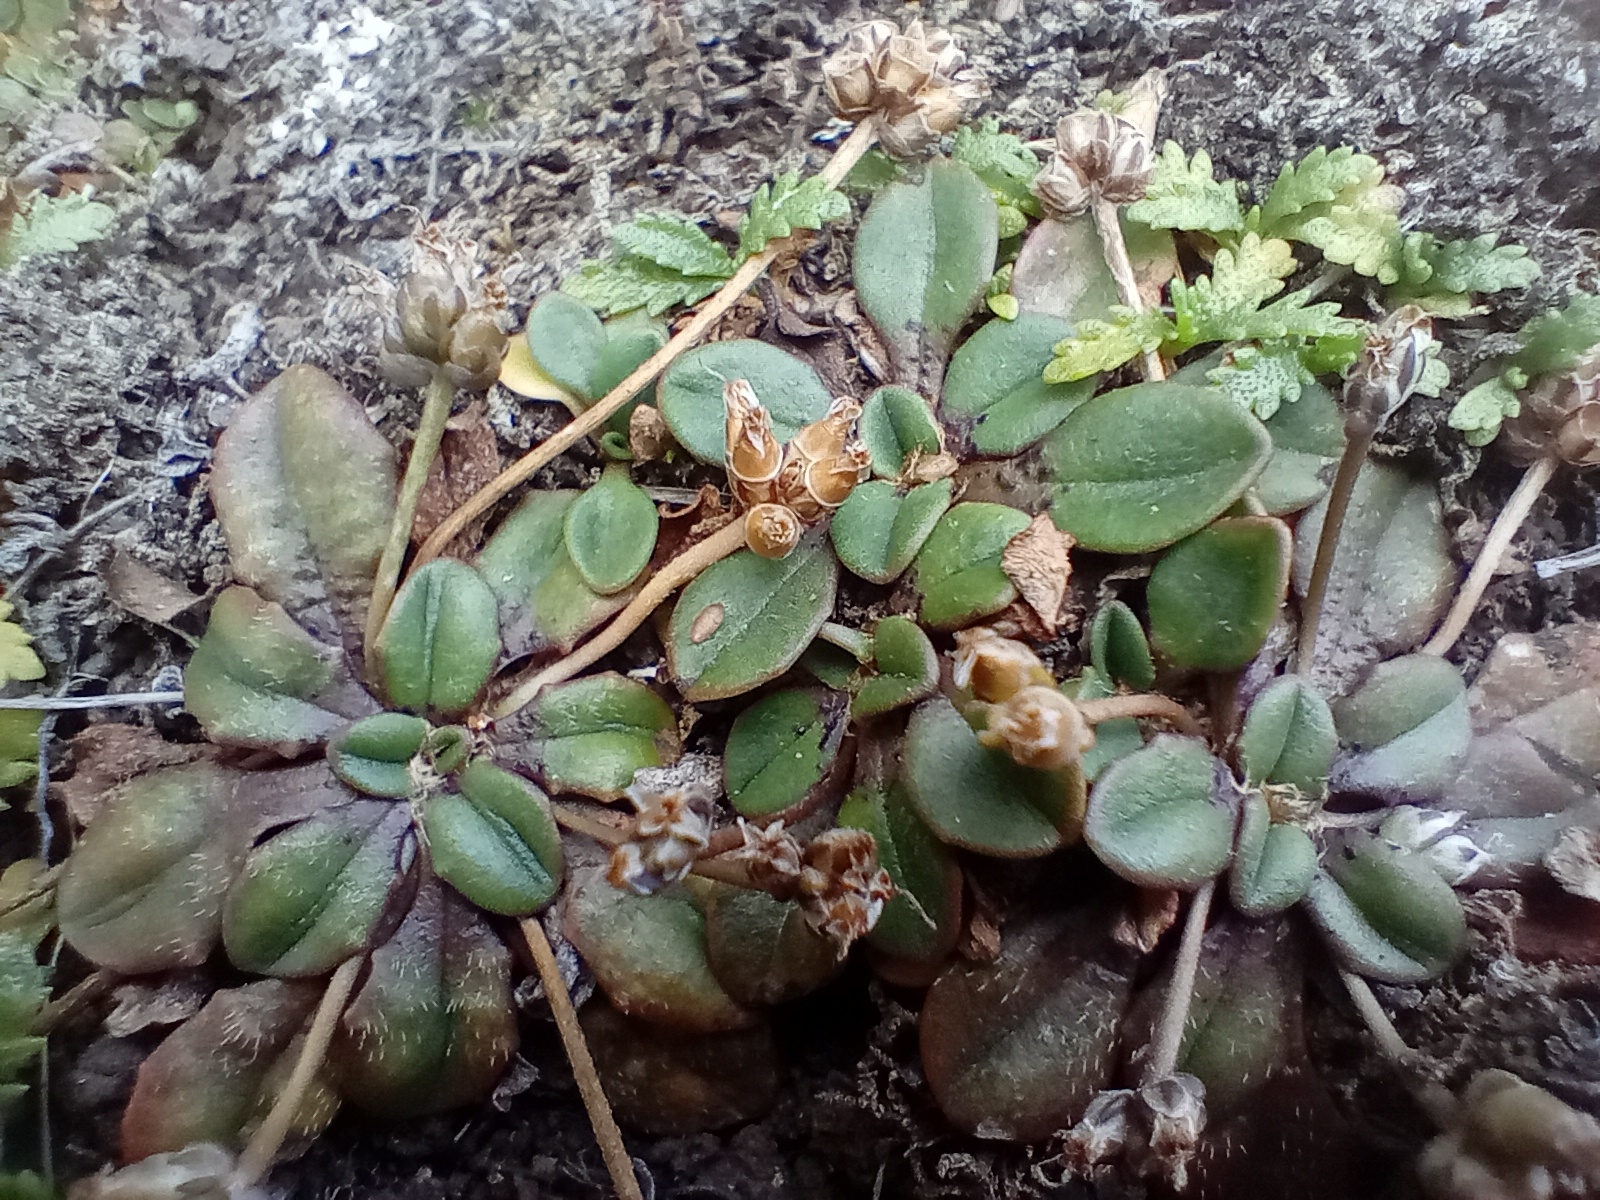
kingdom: Plantae
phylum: Tracheophyta
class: Magnoliopsida
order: Lamiales
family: Plantaginaceae
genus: Plantago
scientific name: Plantago raoulii
